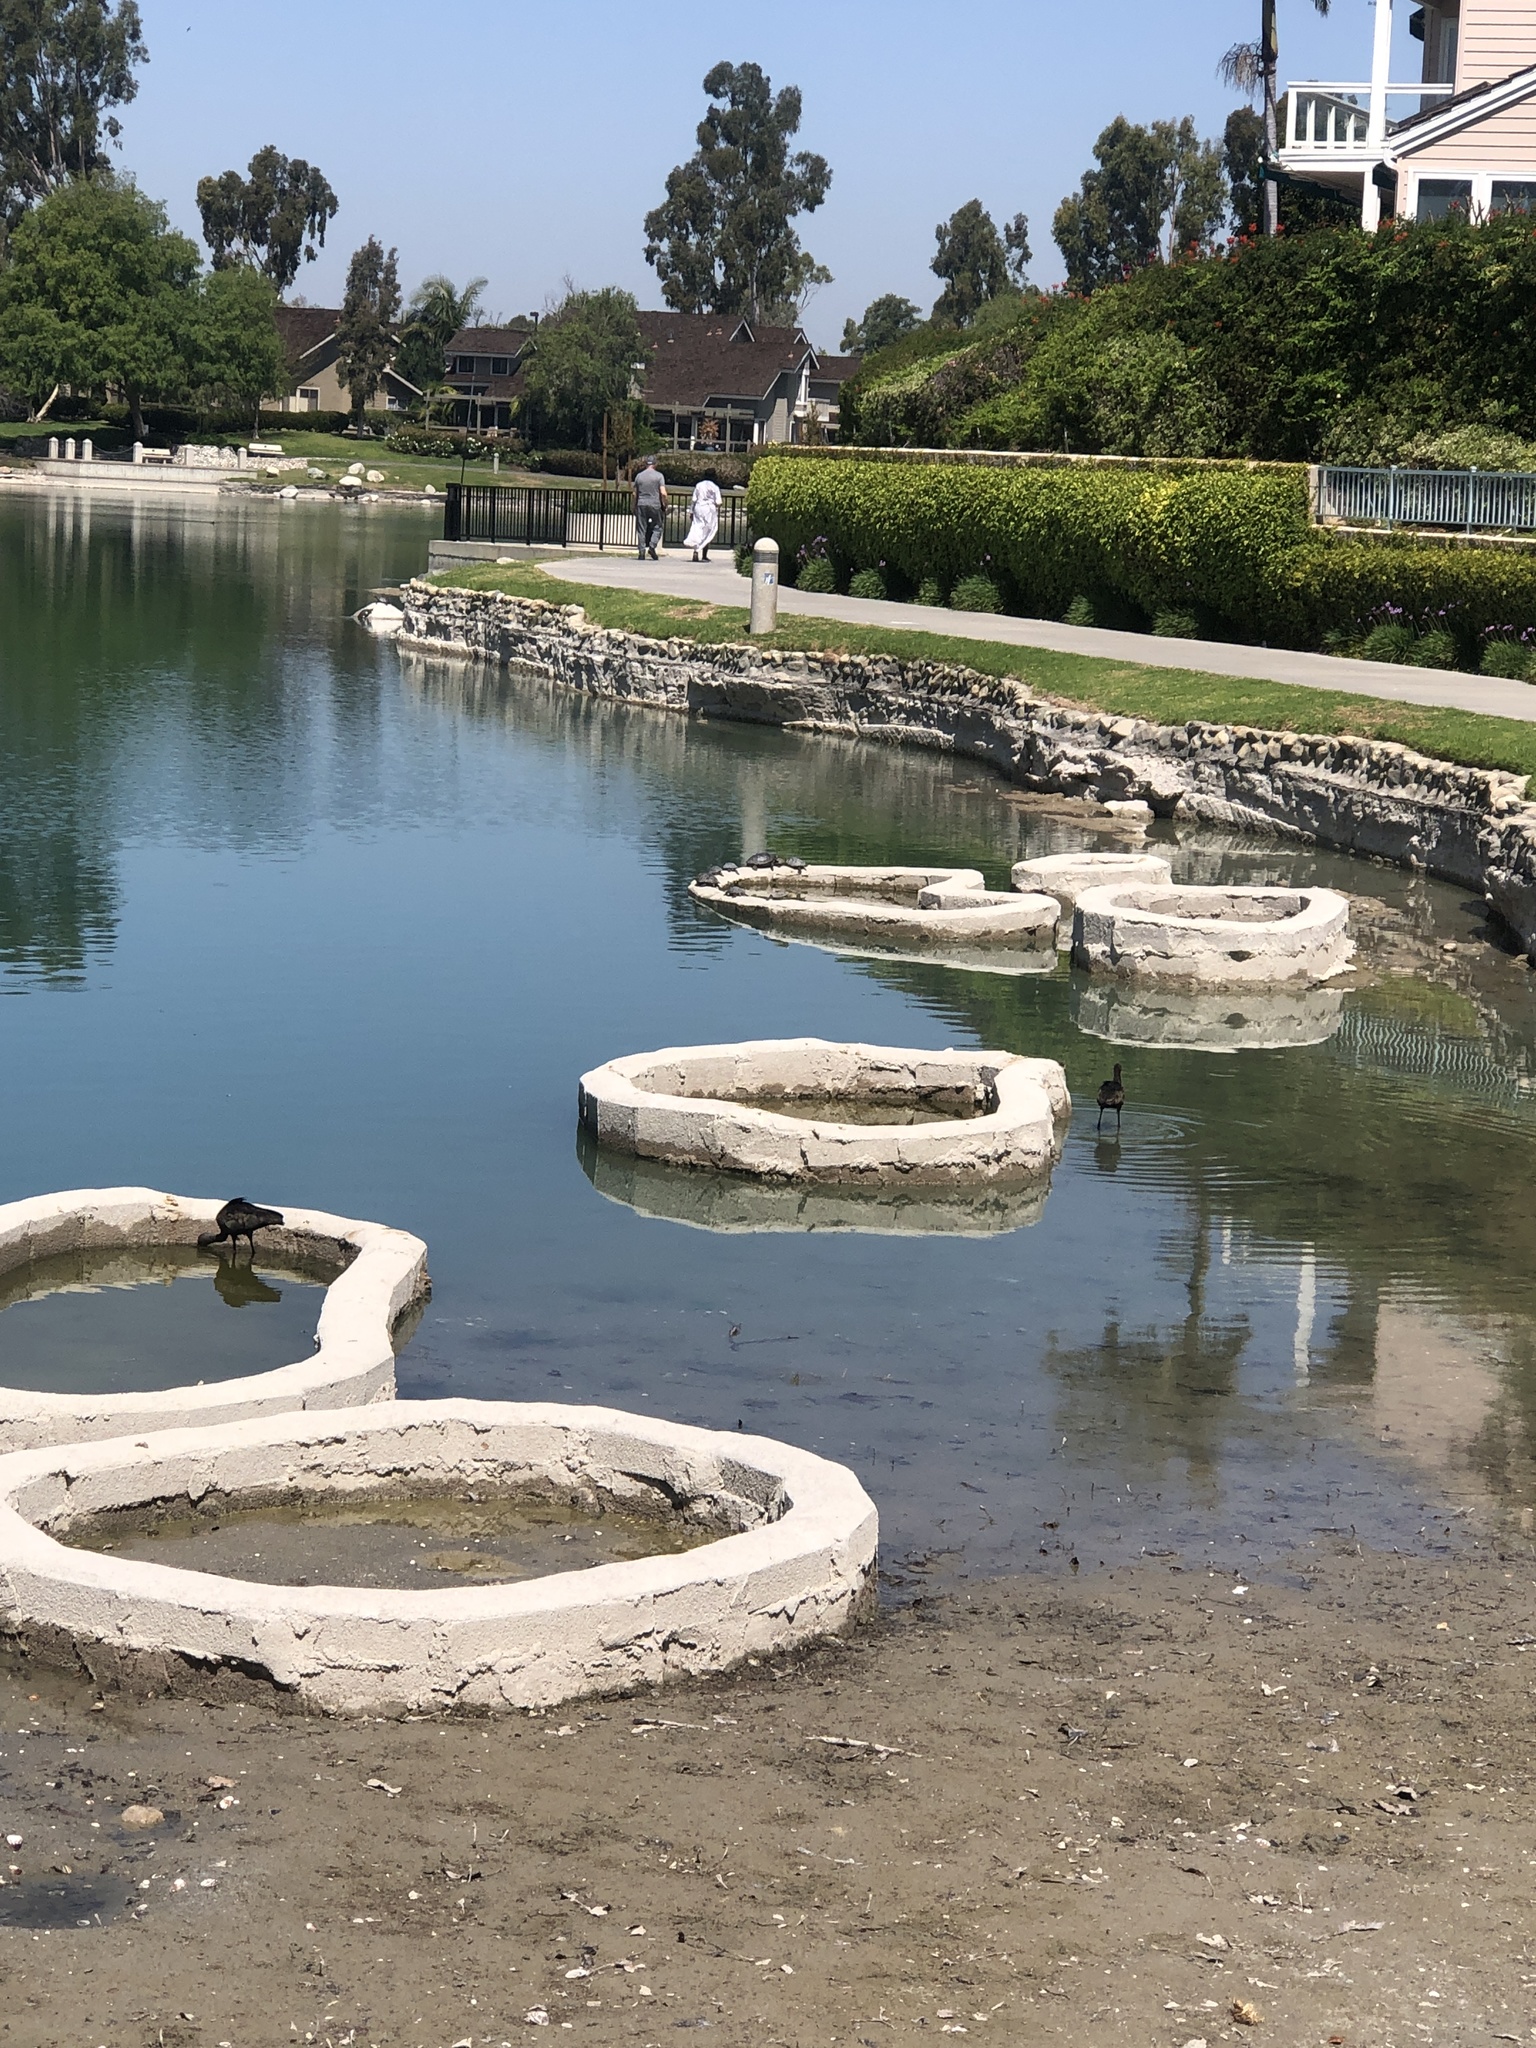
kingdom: Animalia
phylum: Chordata
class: Aves
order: Pelecaniformes
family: Threskiornithidae
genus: Plegadis
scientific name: Plegadis chihi
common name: White-faced ibis
